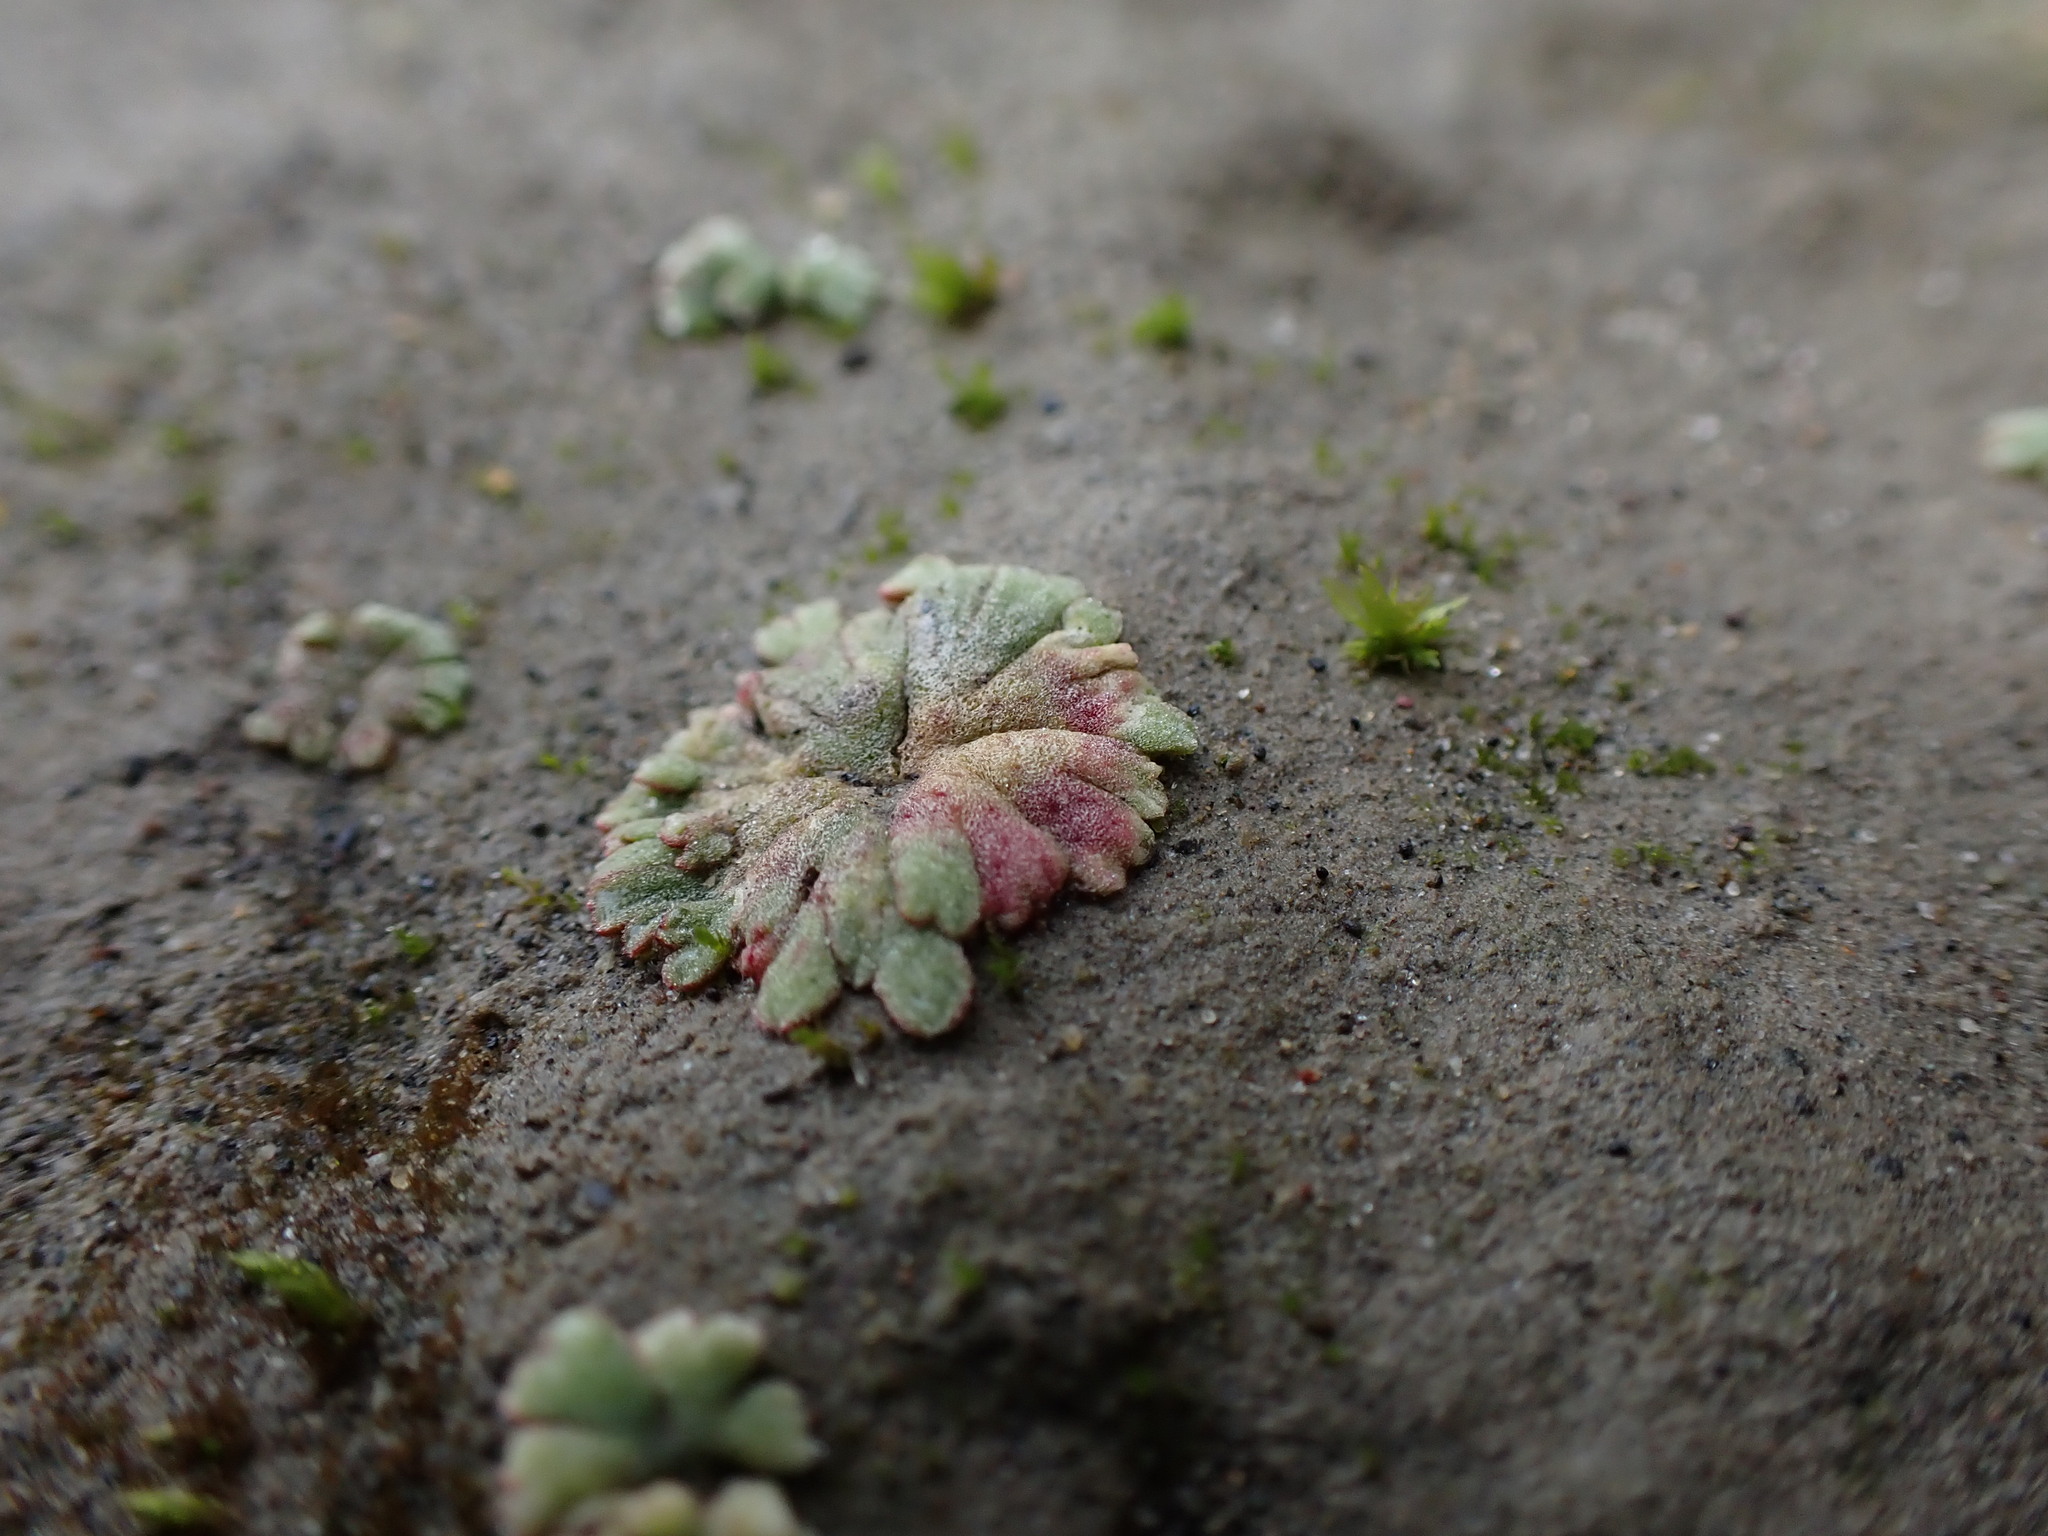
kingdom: Plantae
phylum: Marchantiophyta
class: Marchantiopsida
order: Marchantiales
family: Ricciaceae
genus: Riccia
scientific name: Riccia frostii
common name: Frost s crystalwort
